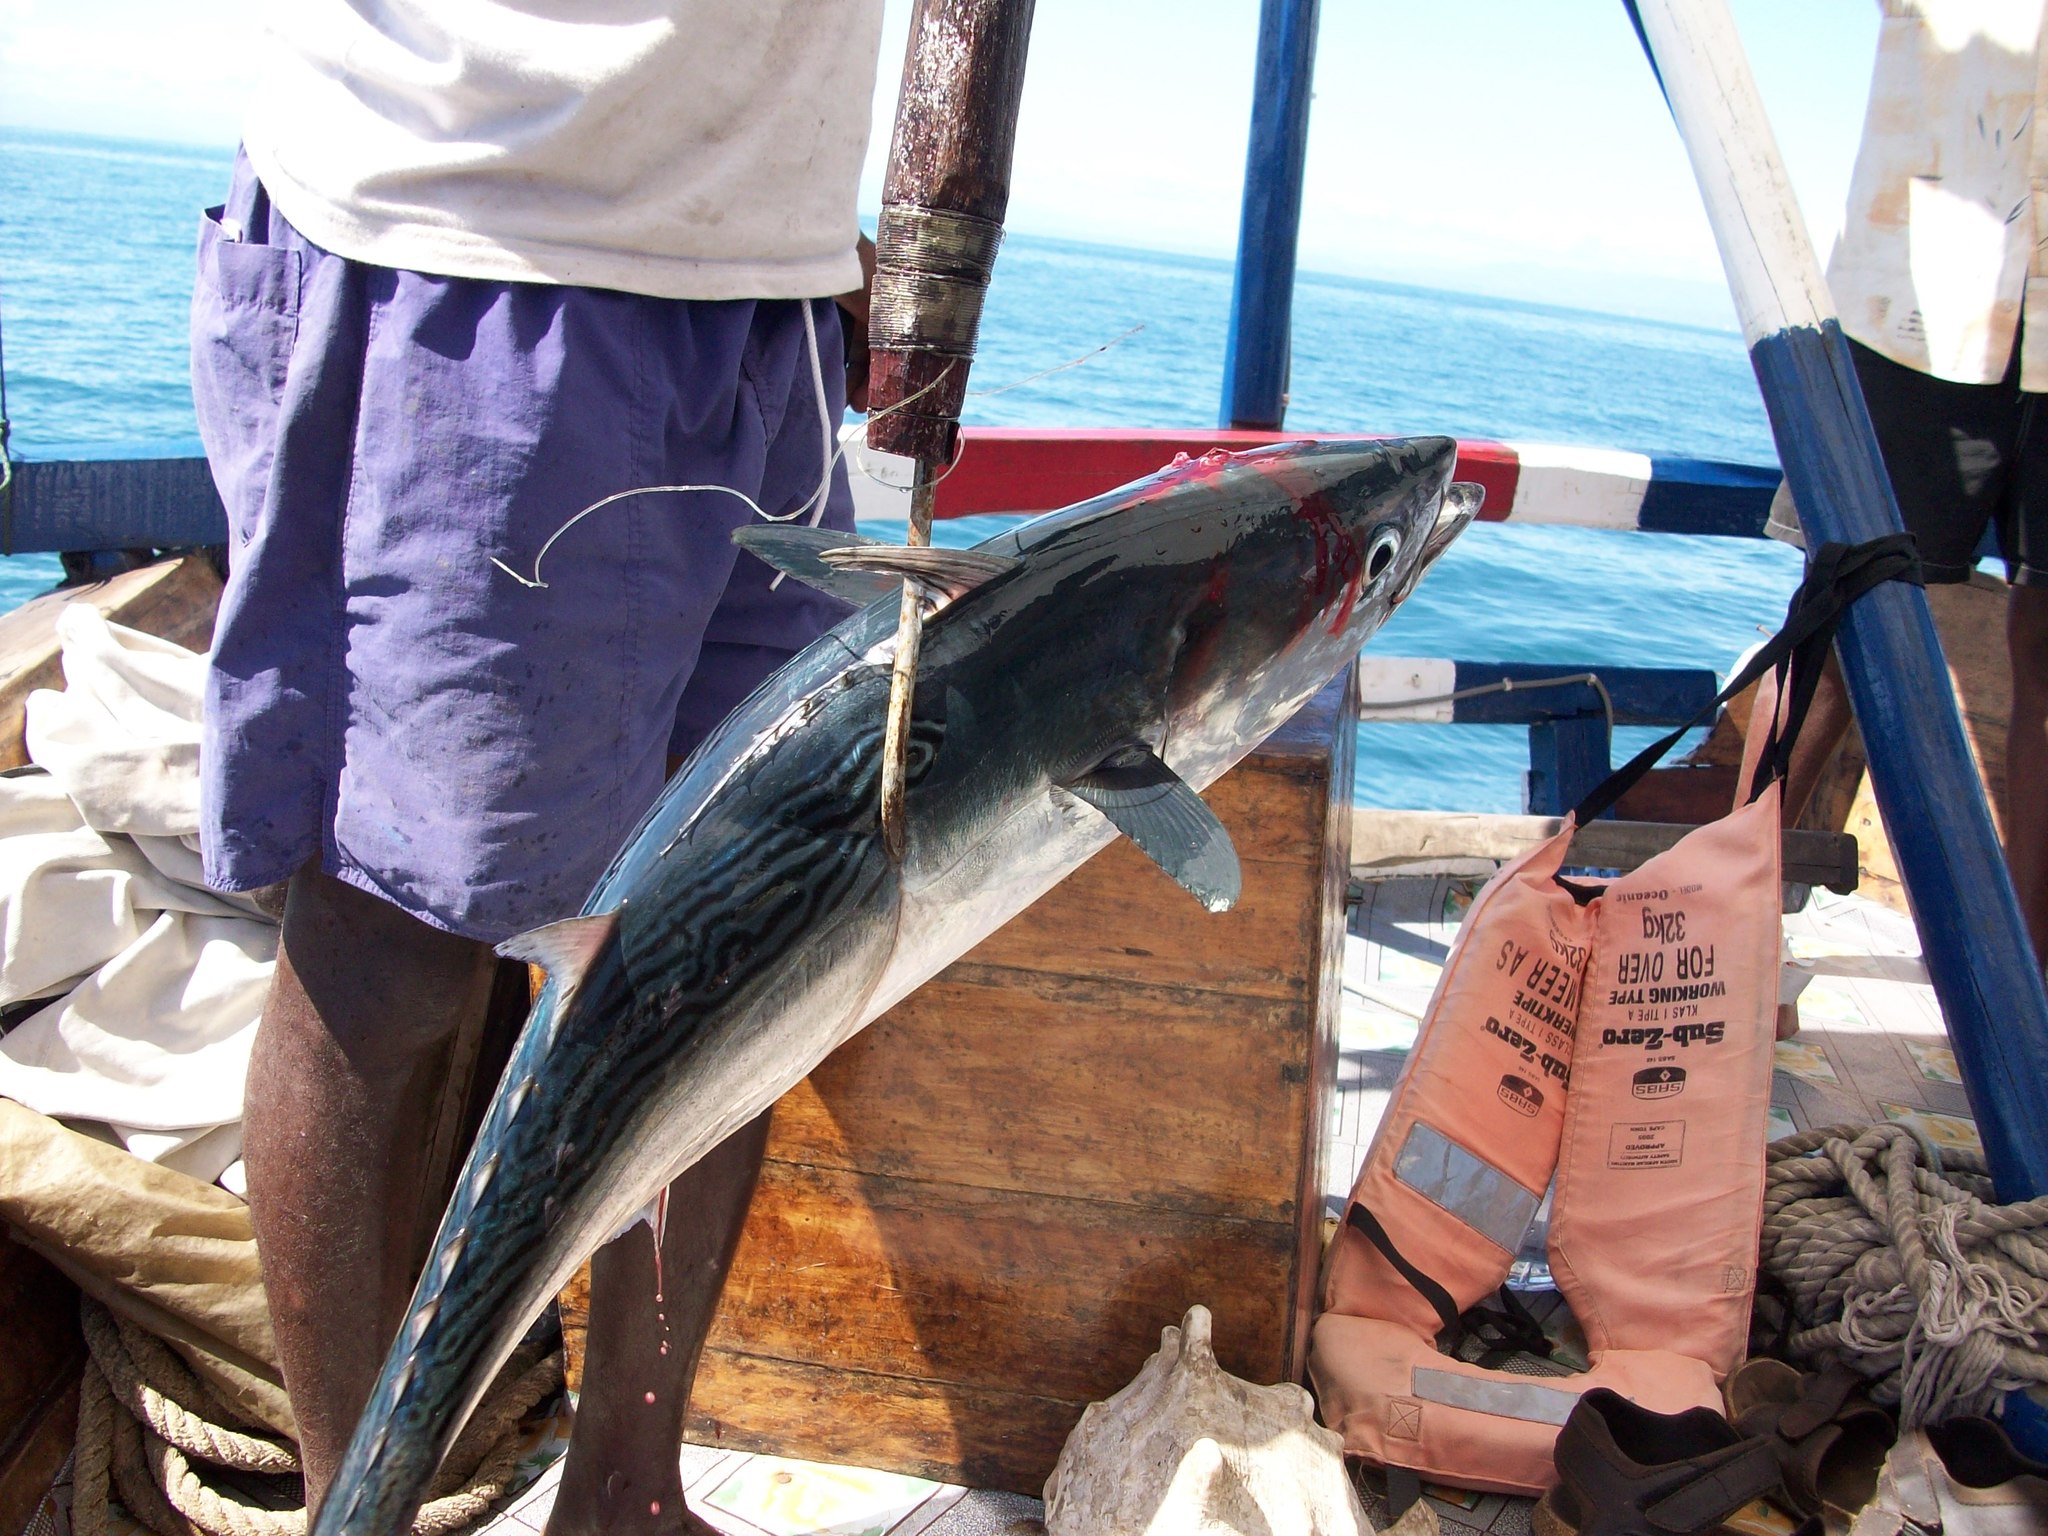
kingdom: Animalia
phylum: Chordata
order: Perciformes
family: Scombridae
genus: Euthynnus
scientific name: Euthynnus affinis
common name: Mackerel tuna
